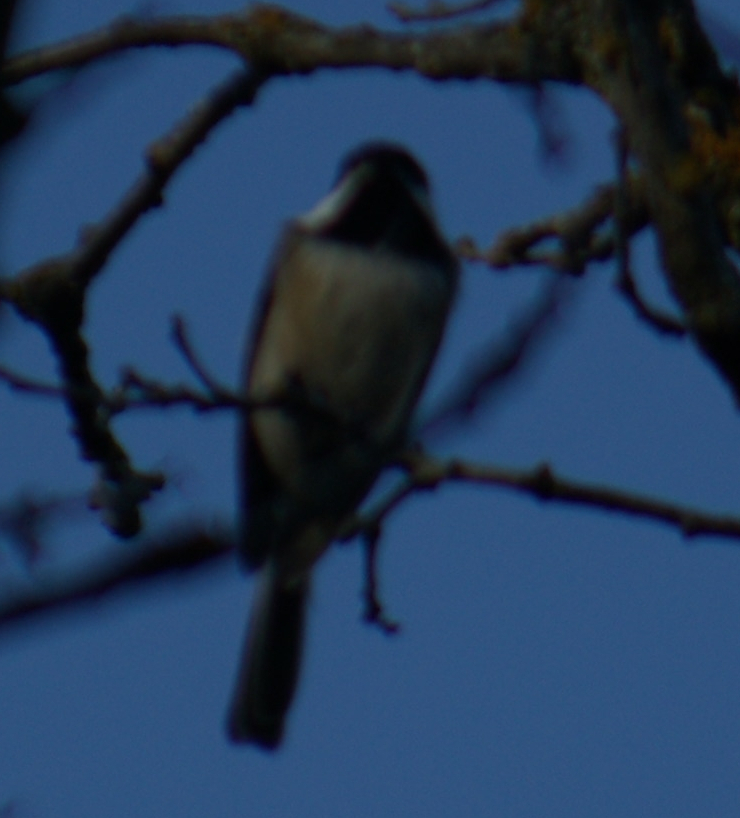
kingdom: Animalia
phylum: Chordata
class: Aves
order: Passeriformes
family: Paridae
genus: Poecile
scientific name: Poecile atricapillus
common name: Black-capped chickadee
